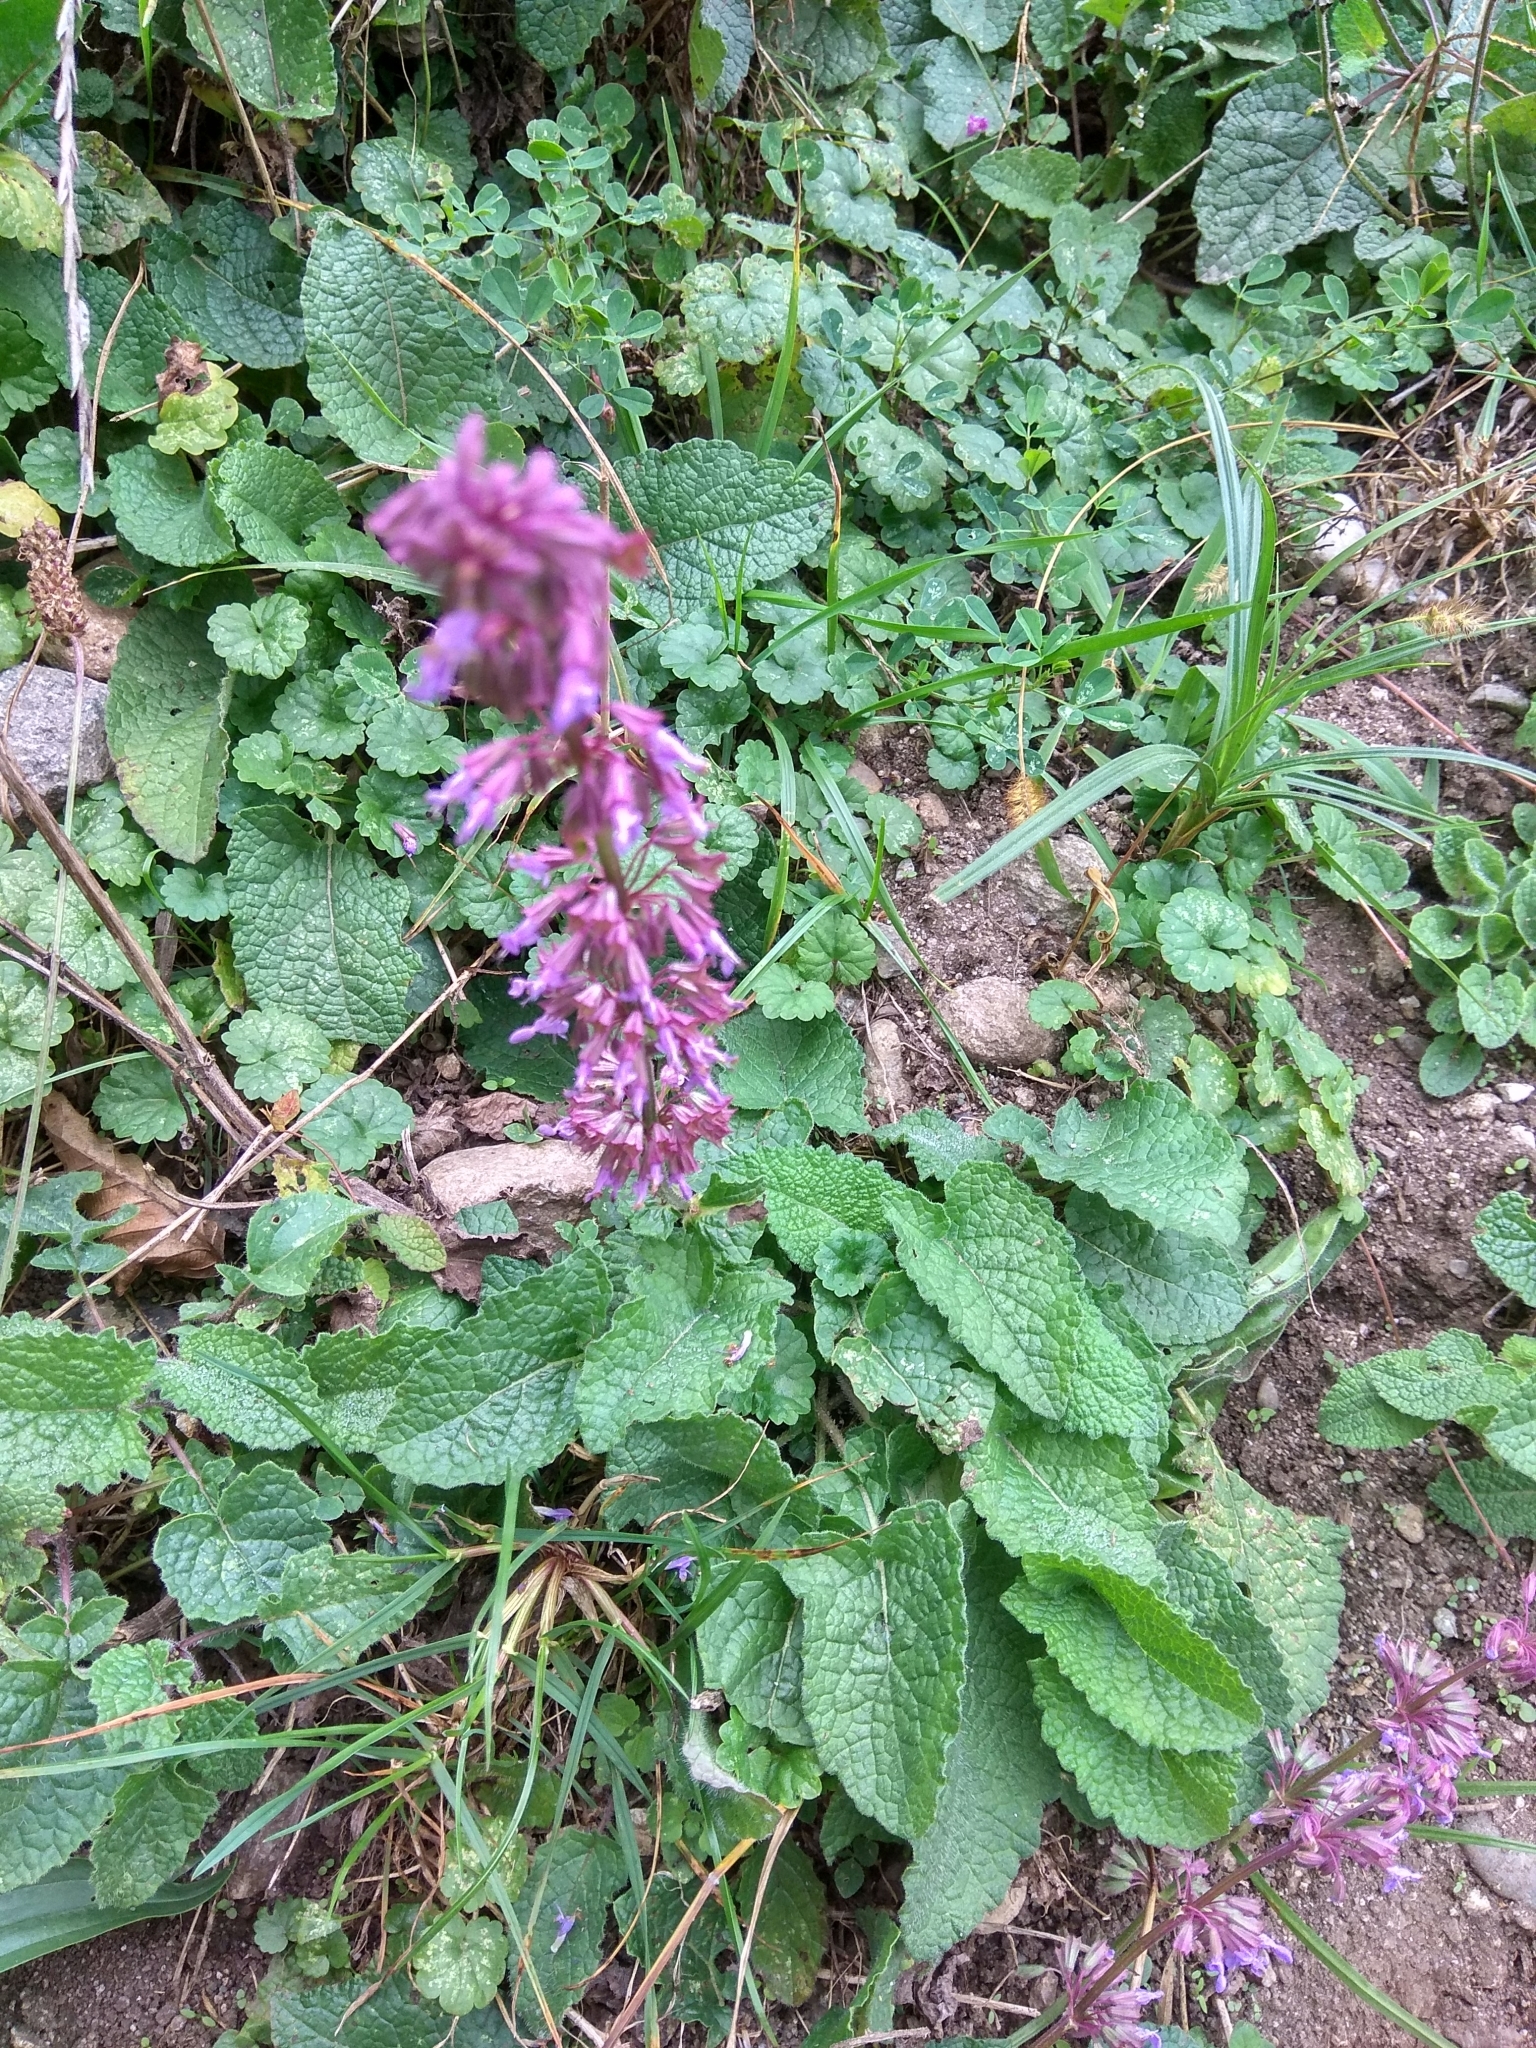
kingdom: Plantae
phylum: Tracheophyta
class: Magnoliopsida
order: Lamiales
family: Lamiaceae
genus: Salvia
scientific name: Salvia verticillata
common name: Whorled clary
